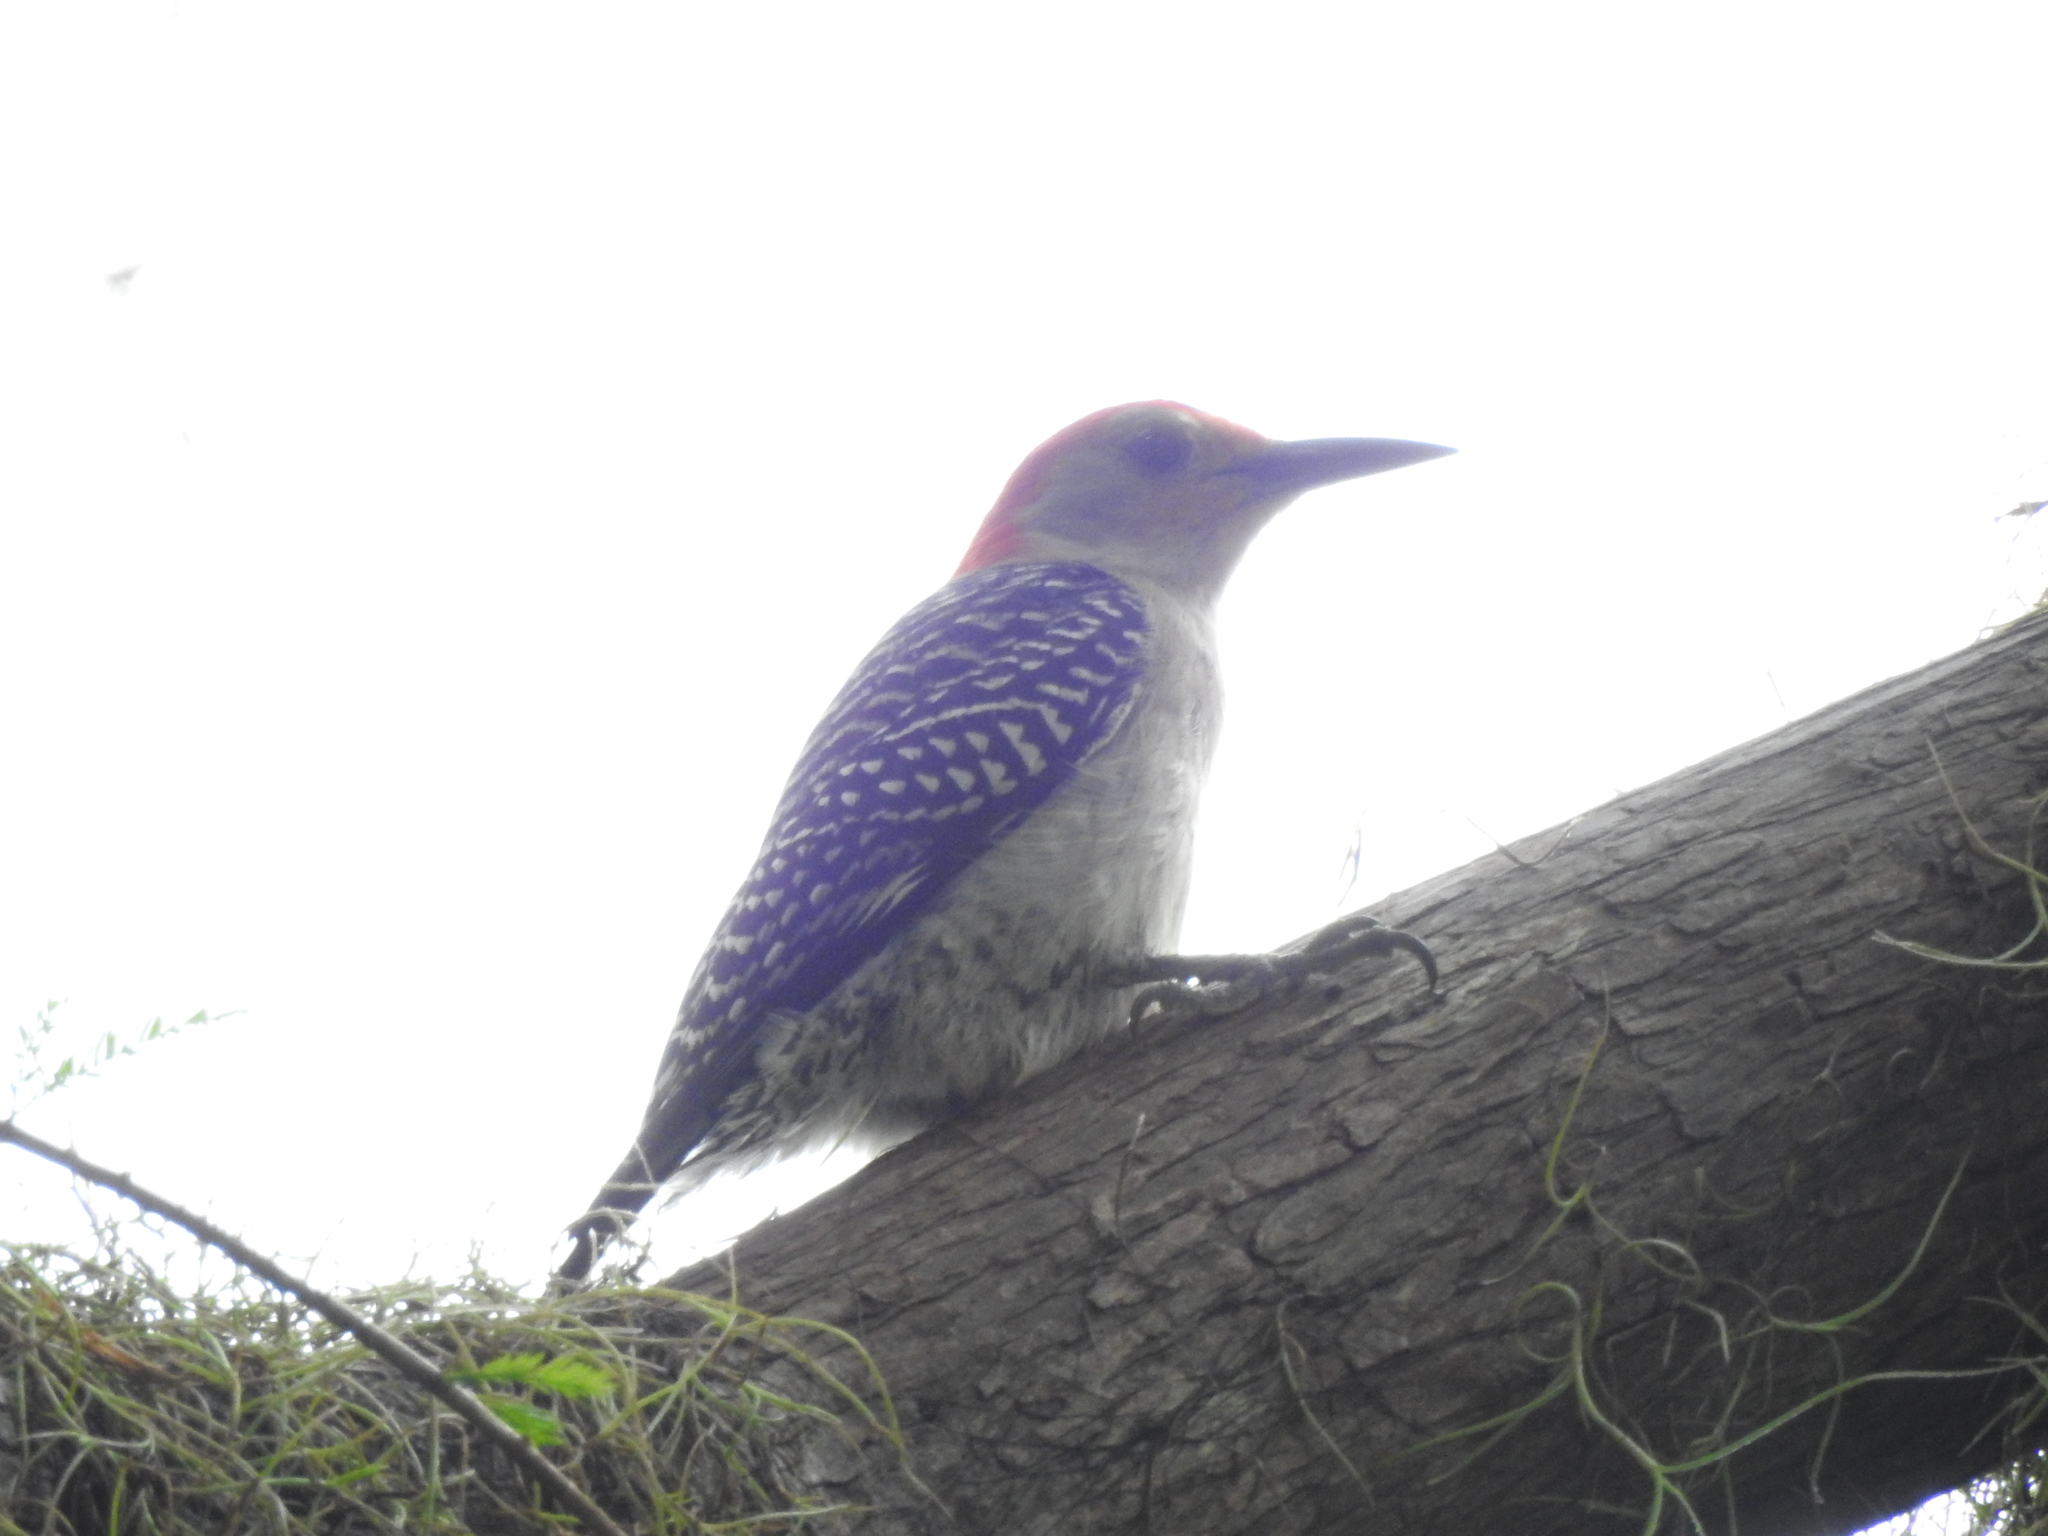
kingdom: Animalia
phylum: Chordata
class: Aves
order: Piciformes
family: Picidae
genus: Melanerpes
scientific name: Melanerpes carolinus
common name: Red-bellied woodpecker
